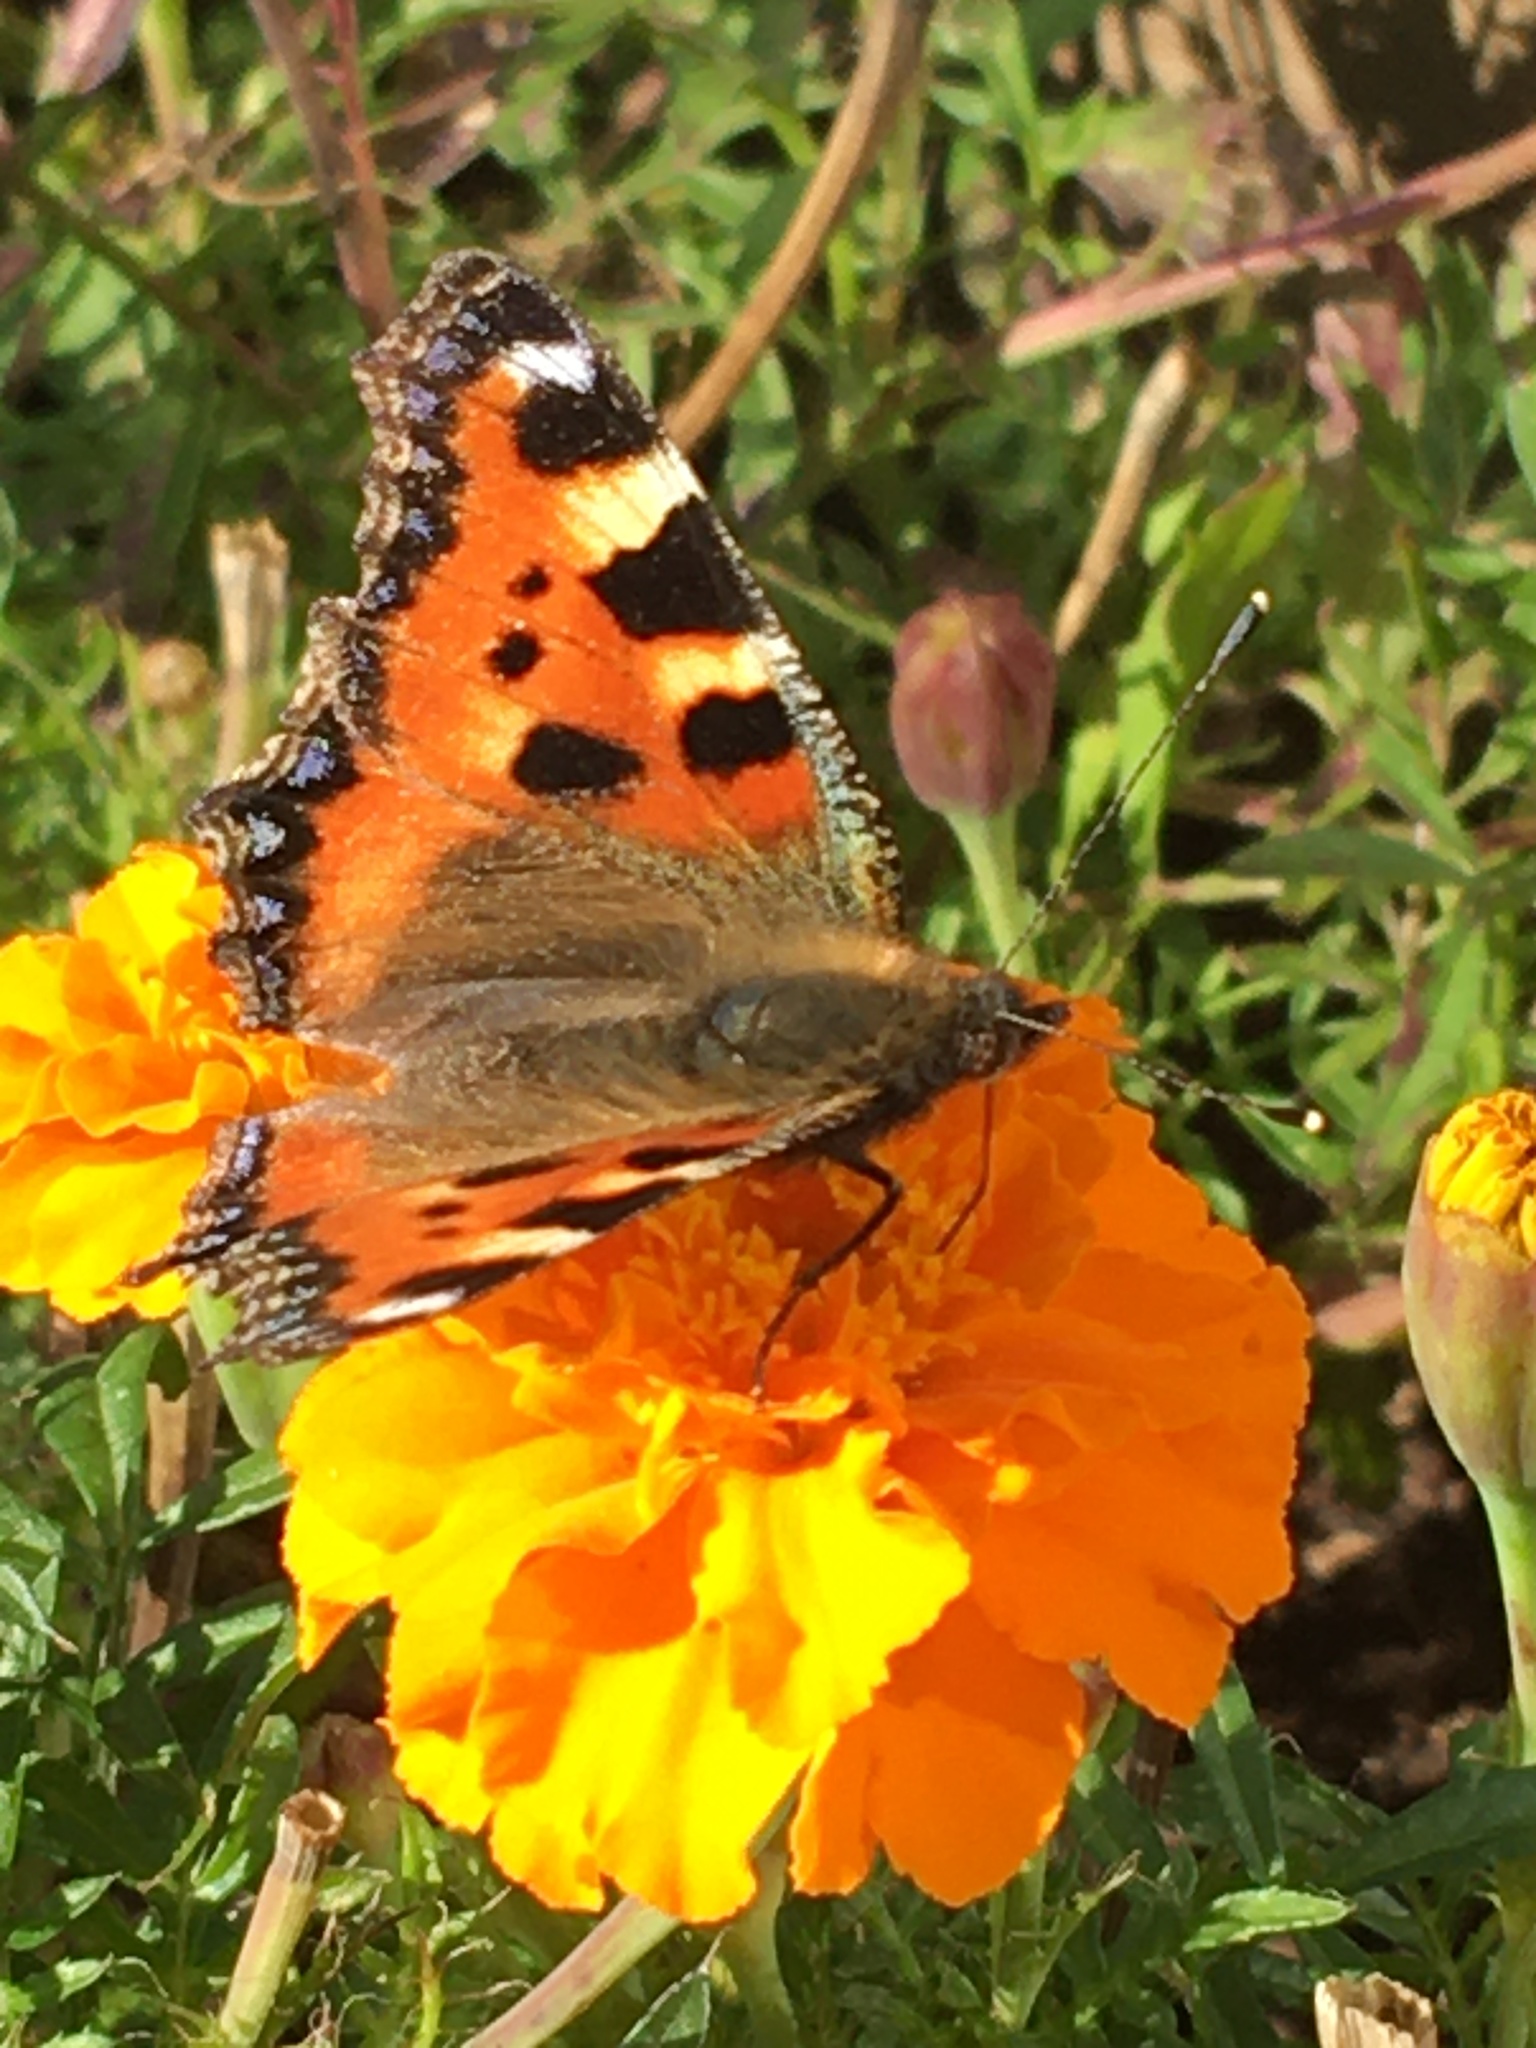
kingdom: Animalia
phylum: Arthropoda
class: Insecta
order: Lepidoptera
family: Nymphalidae
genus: Aglais
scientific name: Aglais urticae
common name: Small tortoiseshell
